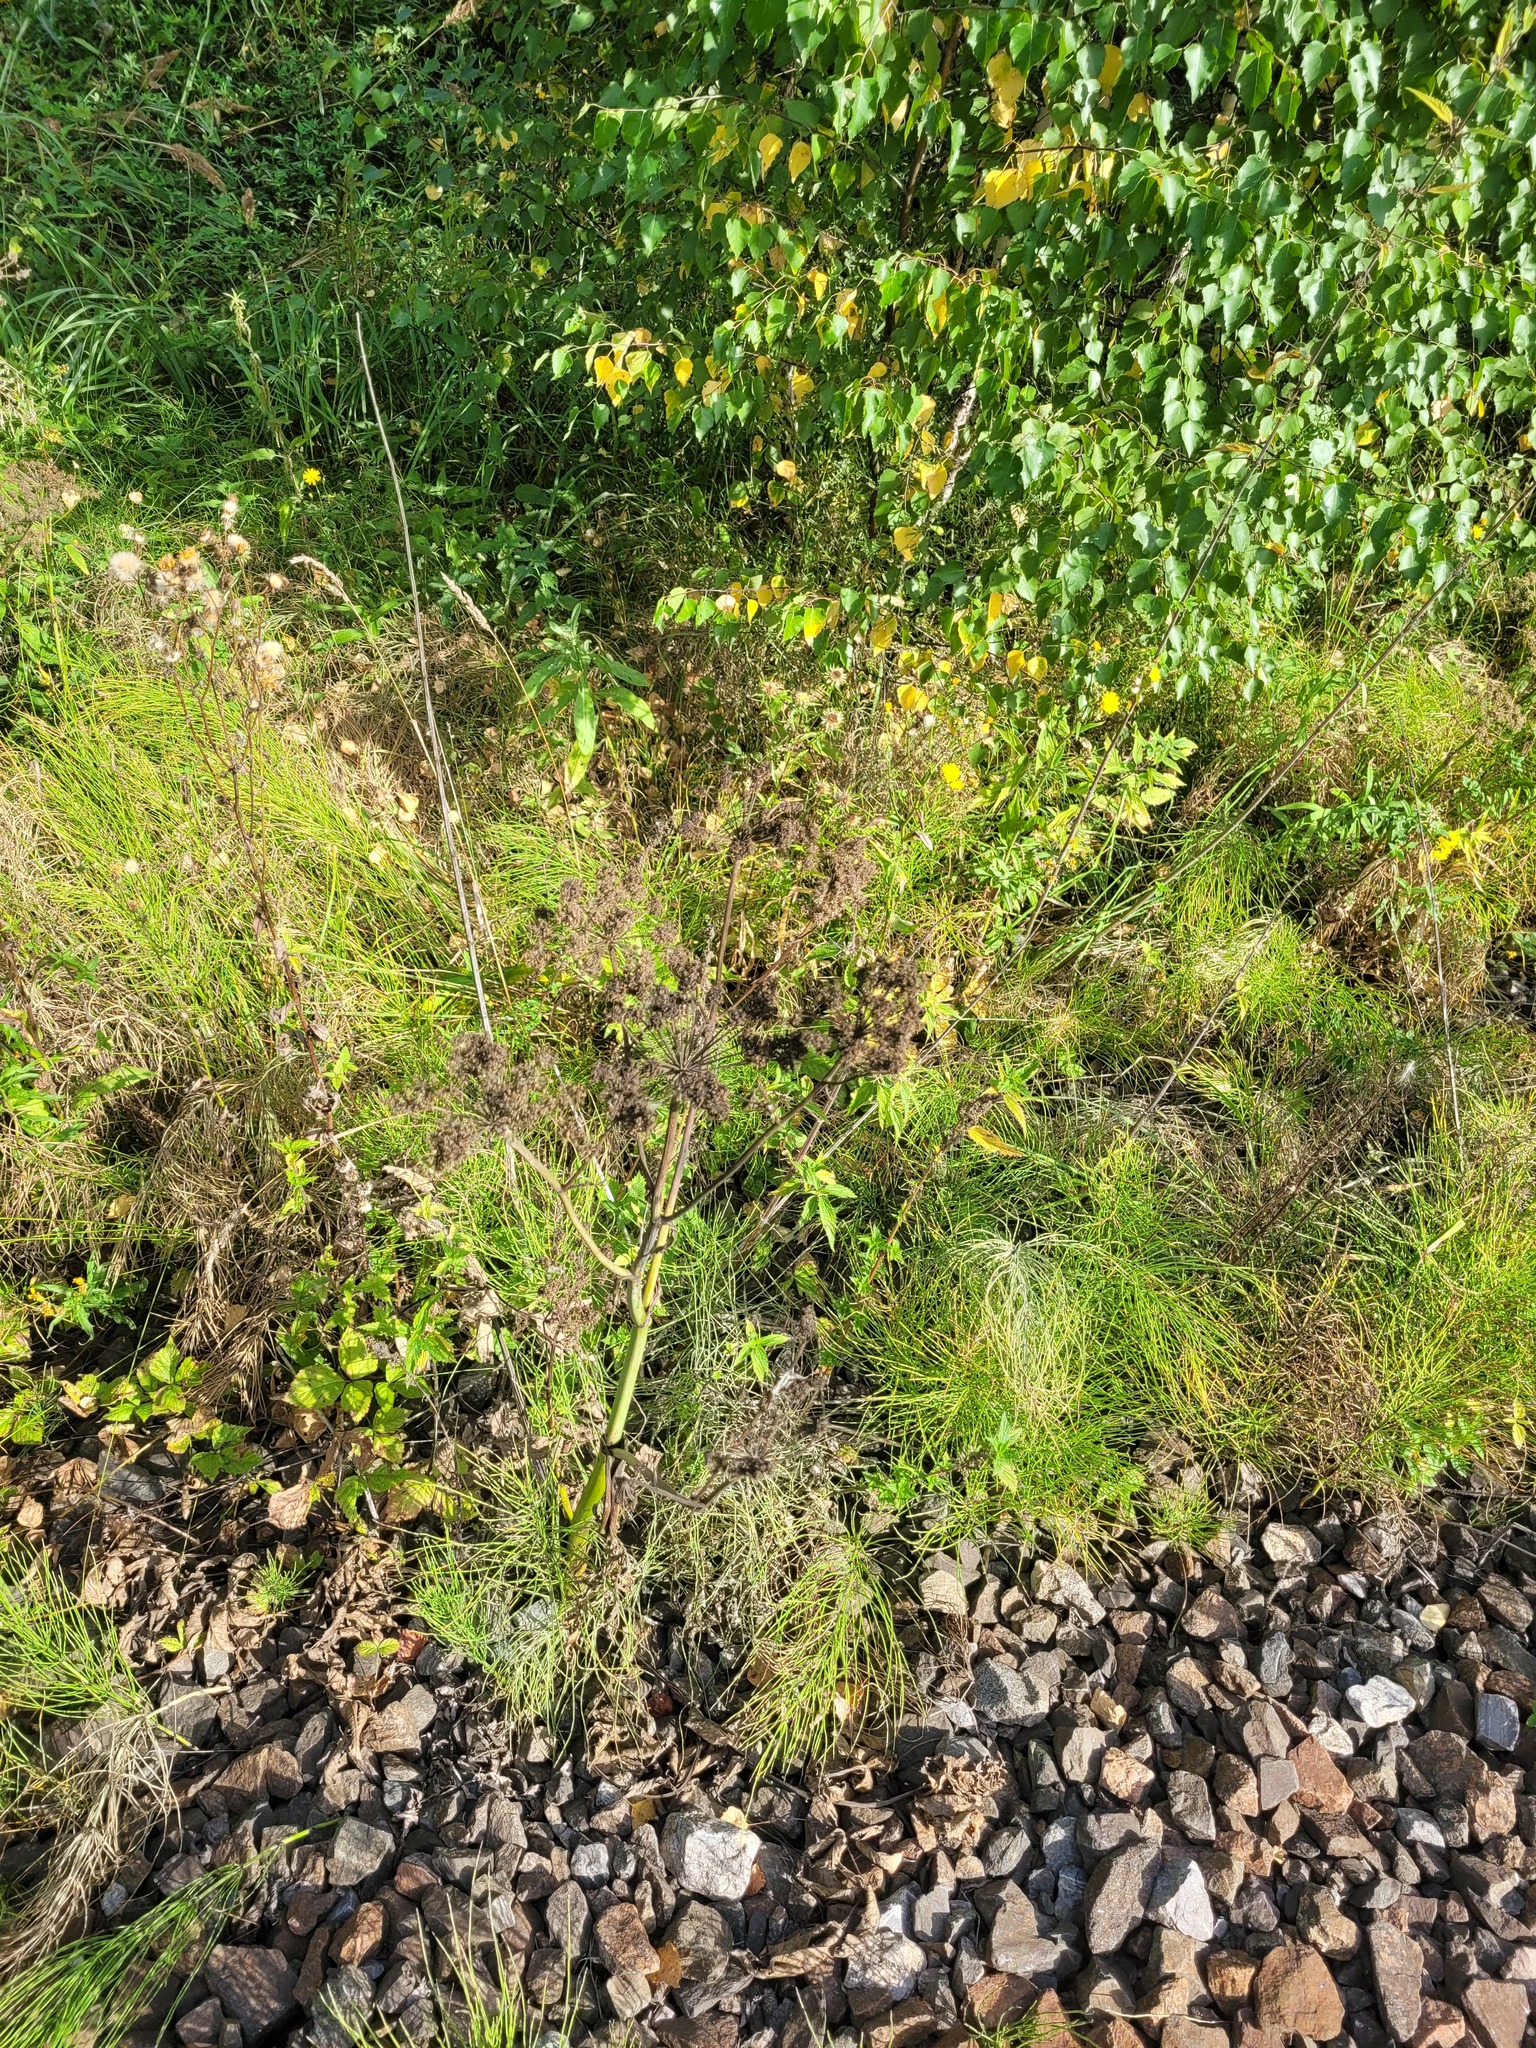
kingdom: Plantae
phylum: Tracheophyta
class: Magnoliopsida
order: Apiales
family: Apiaceae
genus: Angelica
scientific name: Angelica sylvestris
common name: Wild angelica
